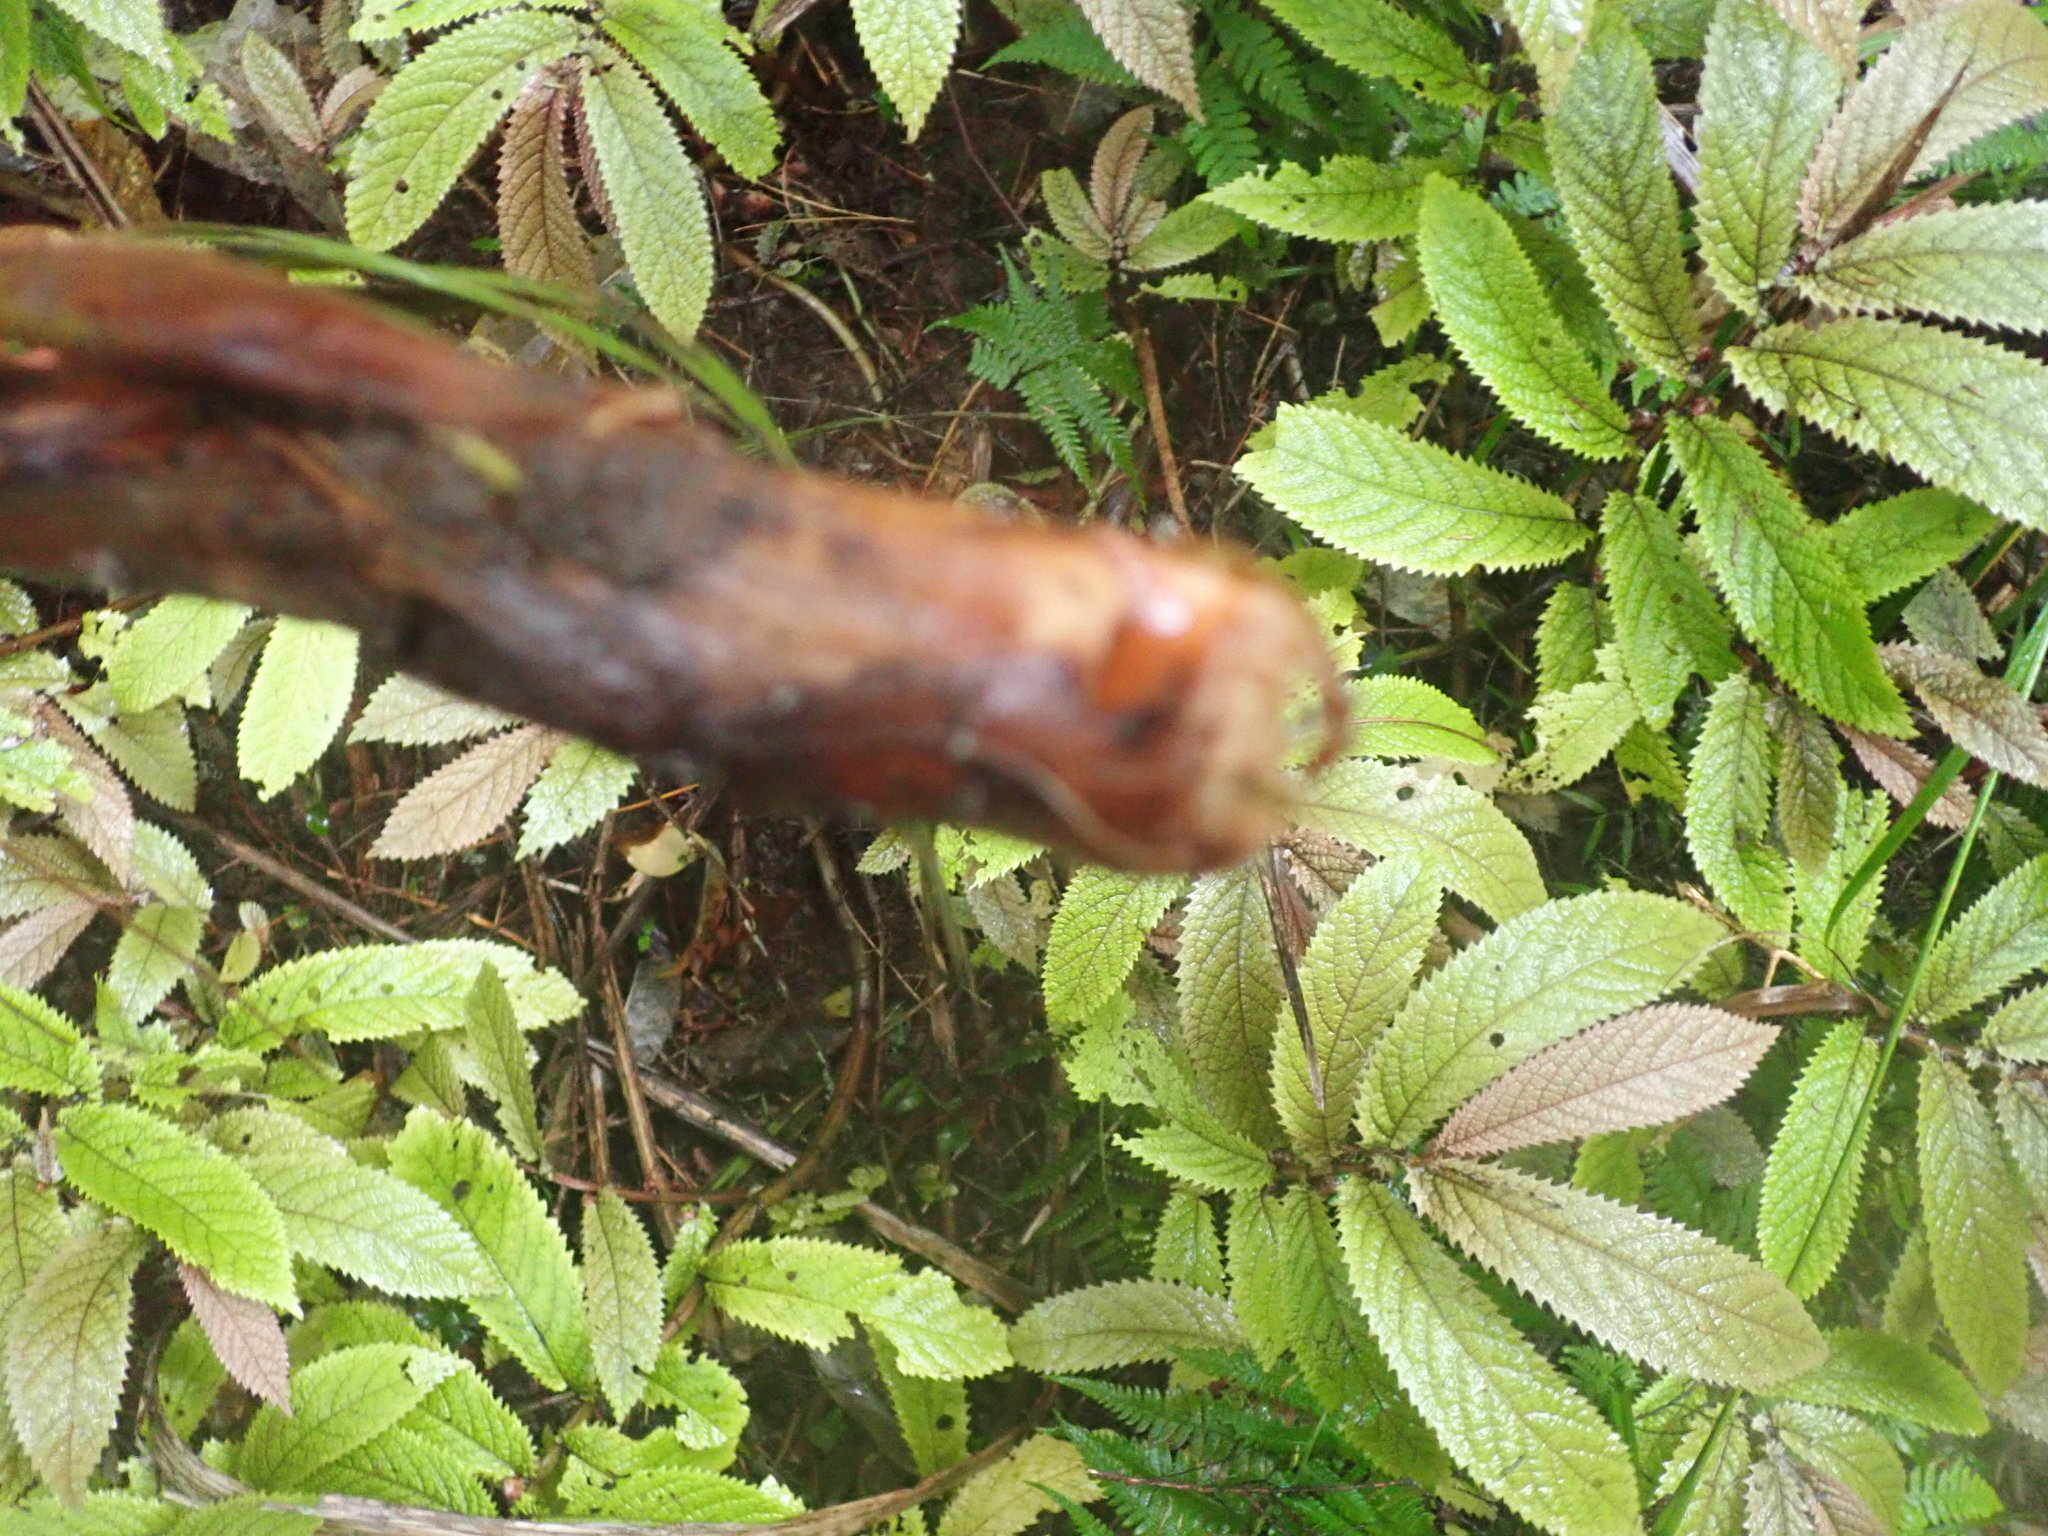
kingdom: Plantae
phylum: Tracheophyta
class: Magnoliopsida
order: Rosales
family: Urticaceae
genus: Elatostema
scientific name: Elatostema rugosum
